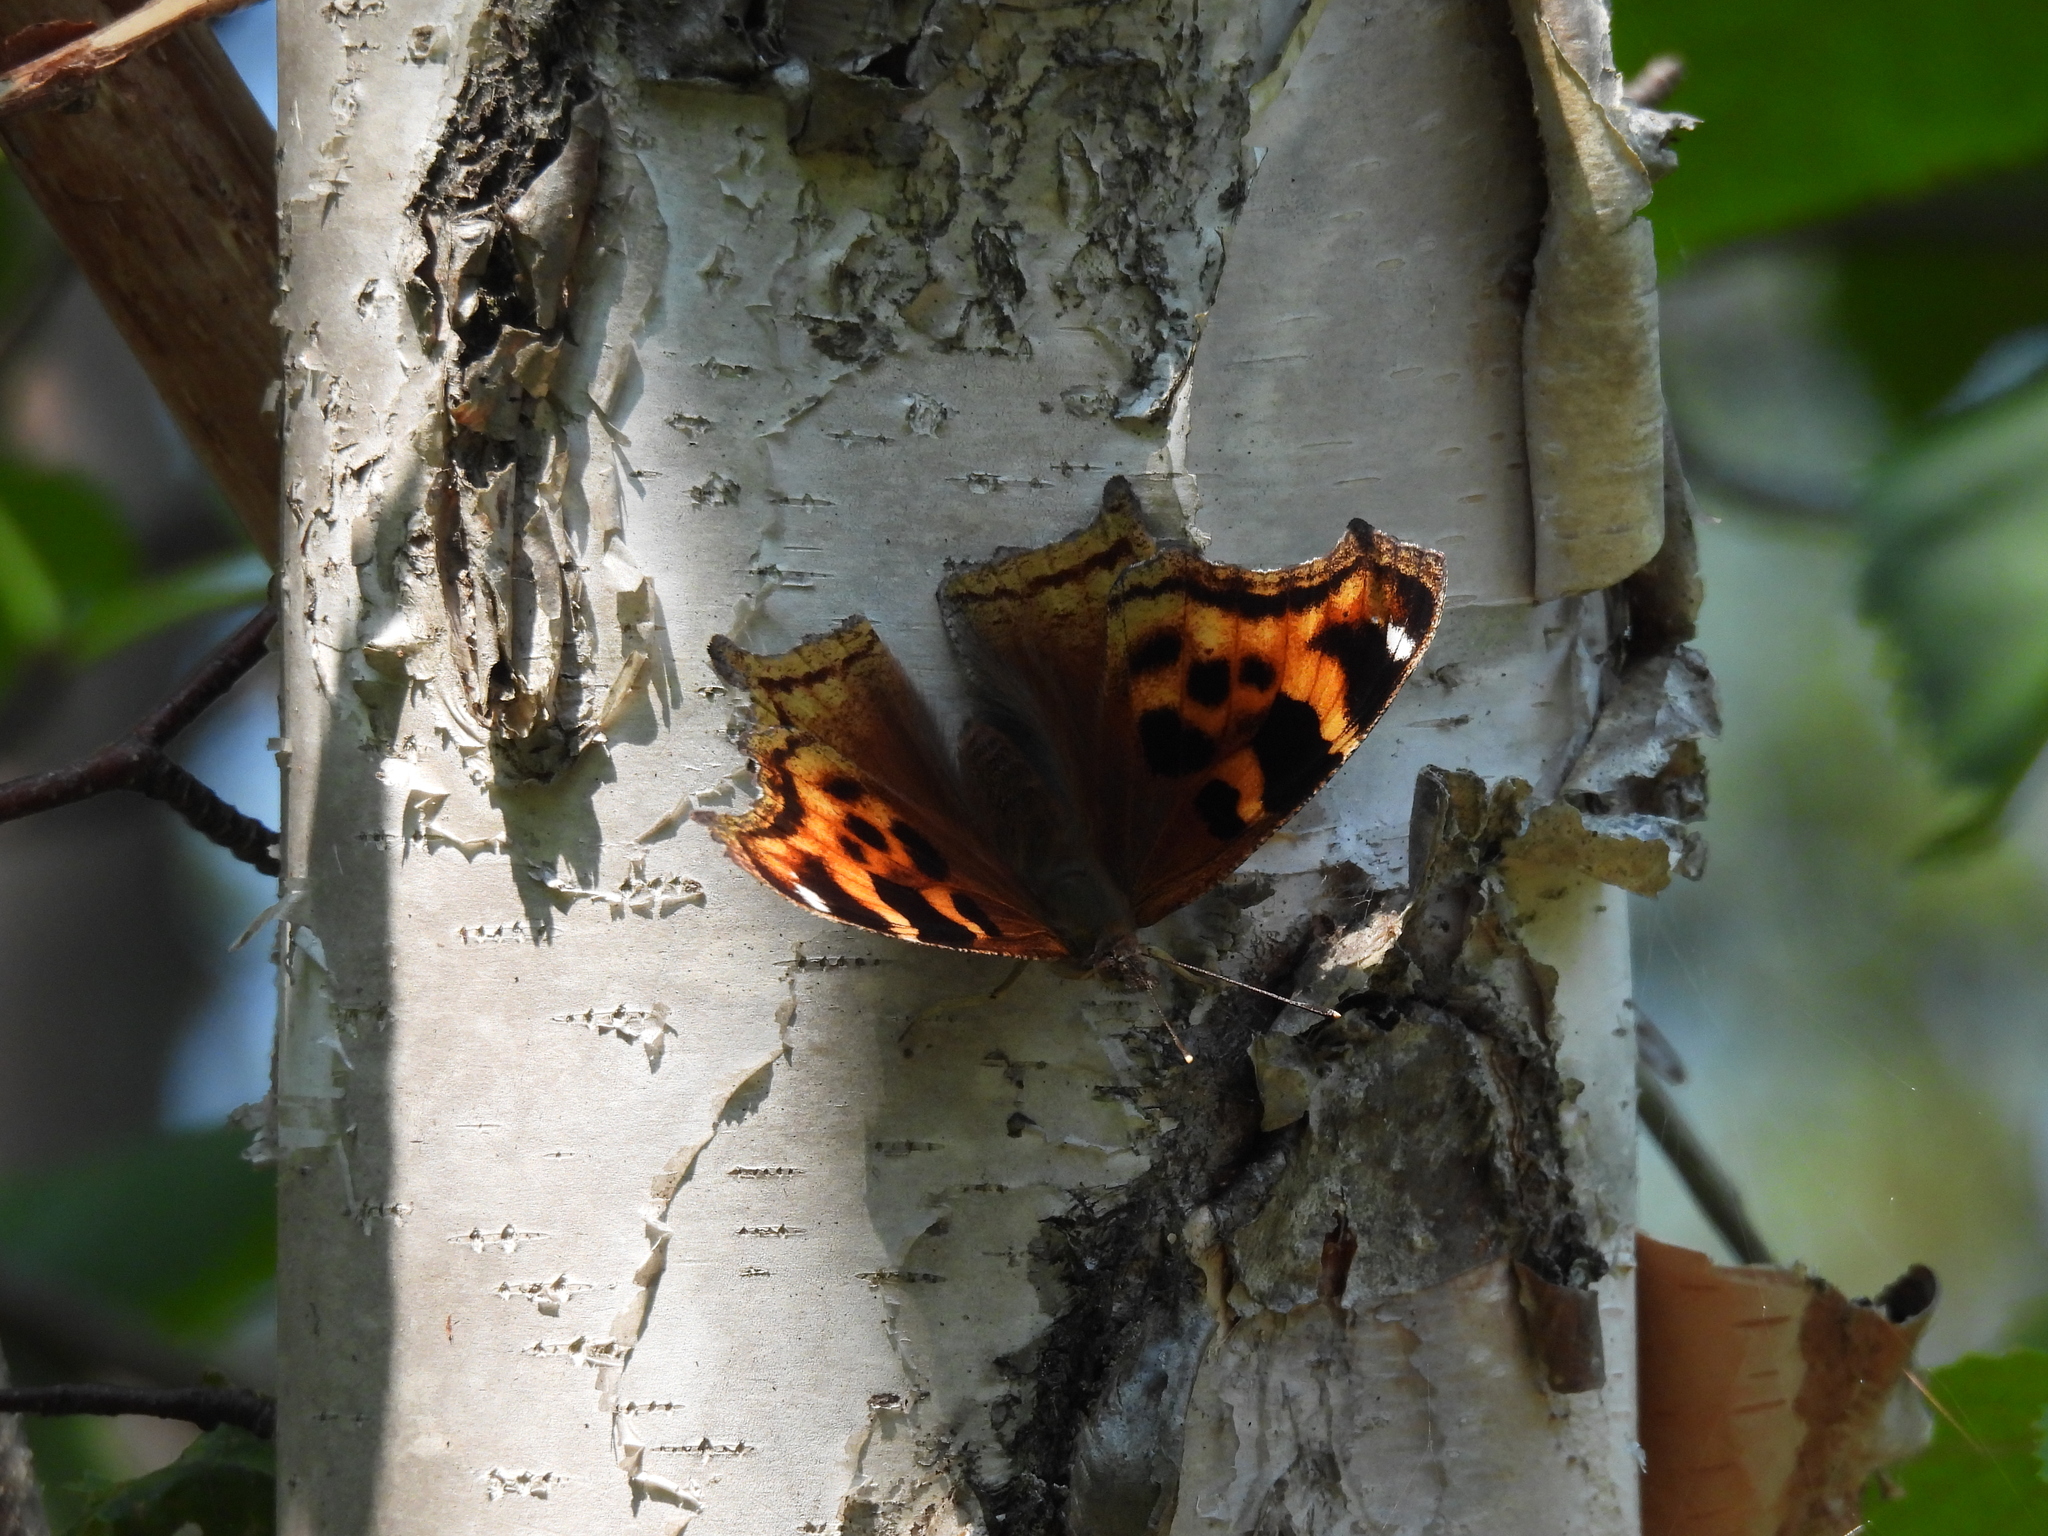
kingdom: Animalia
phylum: Arthropoda
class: Insecta
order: Lepidoptera
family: Nymphalidae
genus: Polygonia
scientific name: Polygonia vaualbum
